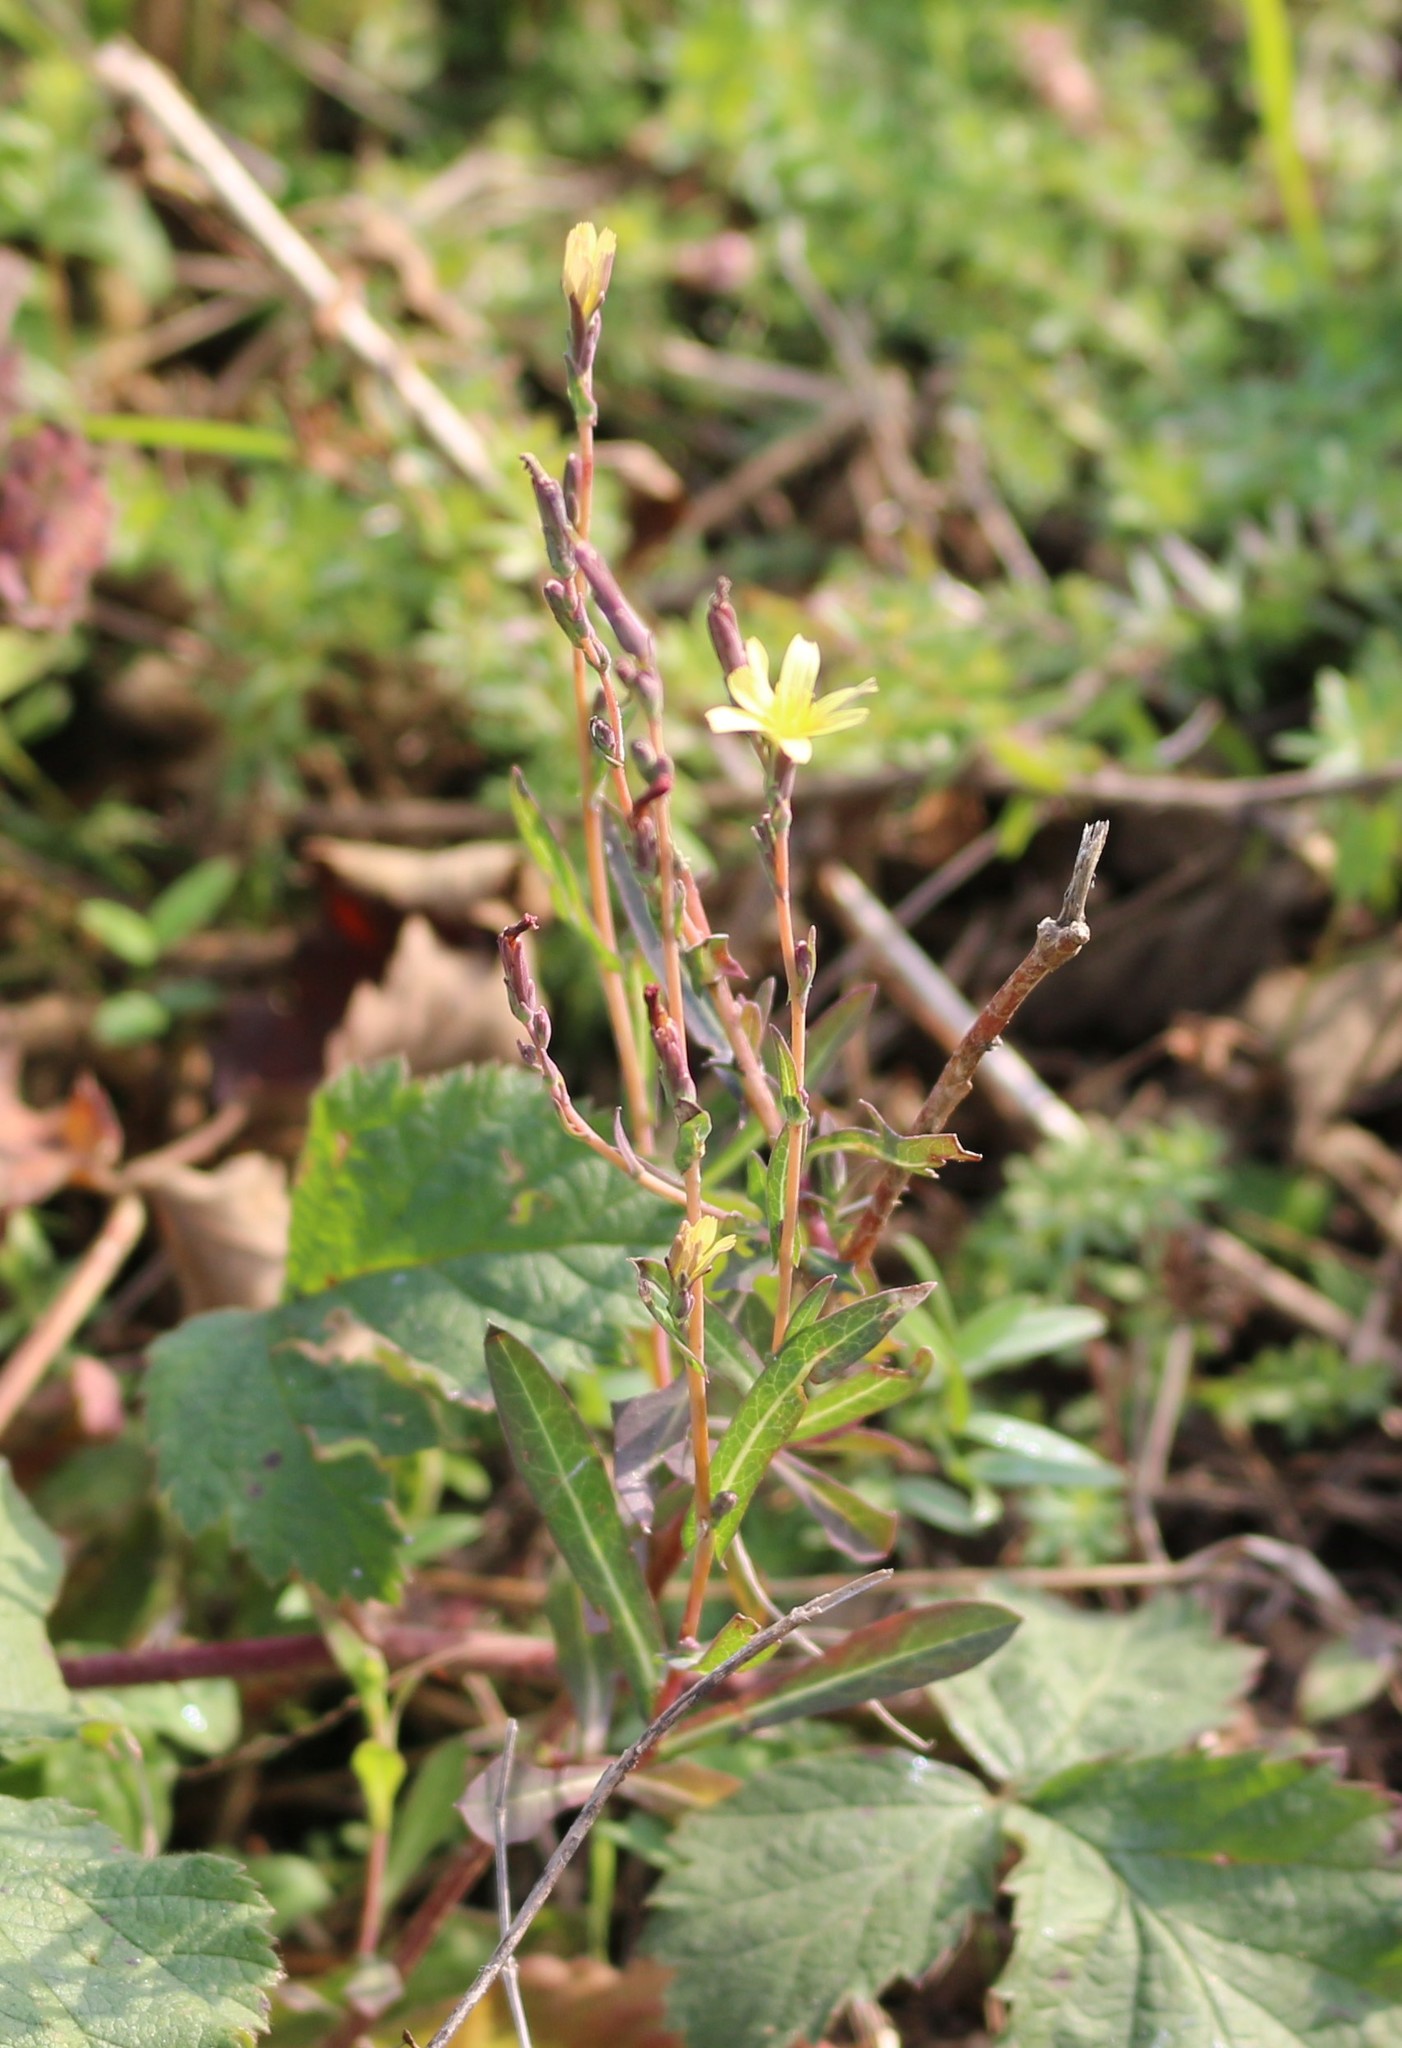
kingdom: Plantae
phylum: Tracheophyta
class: Magnoliopsida
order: Asterales
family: Asteraceae
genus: Lactuca
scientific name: Lactuca serriola
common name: Prickly lettuce
